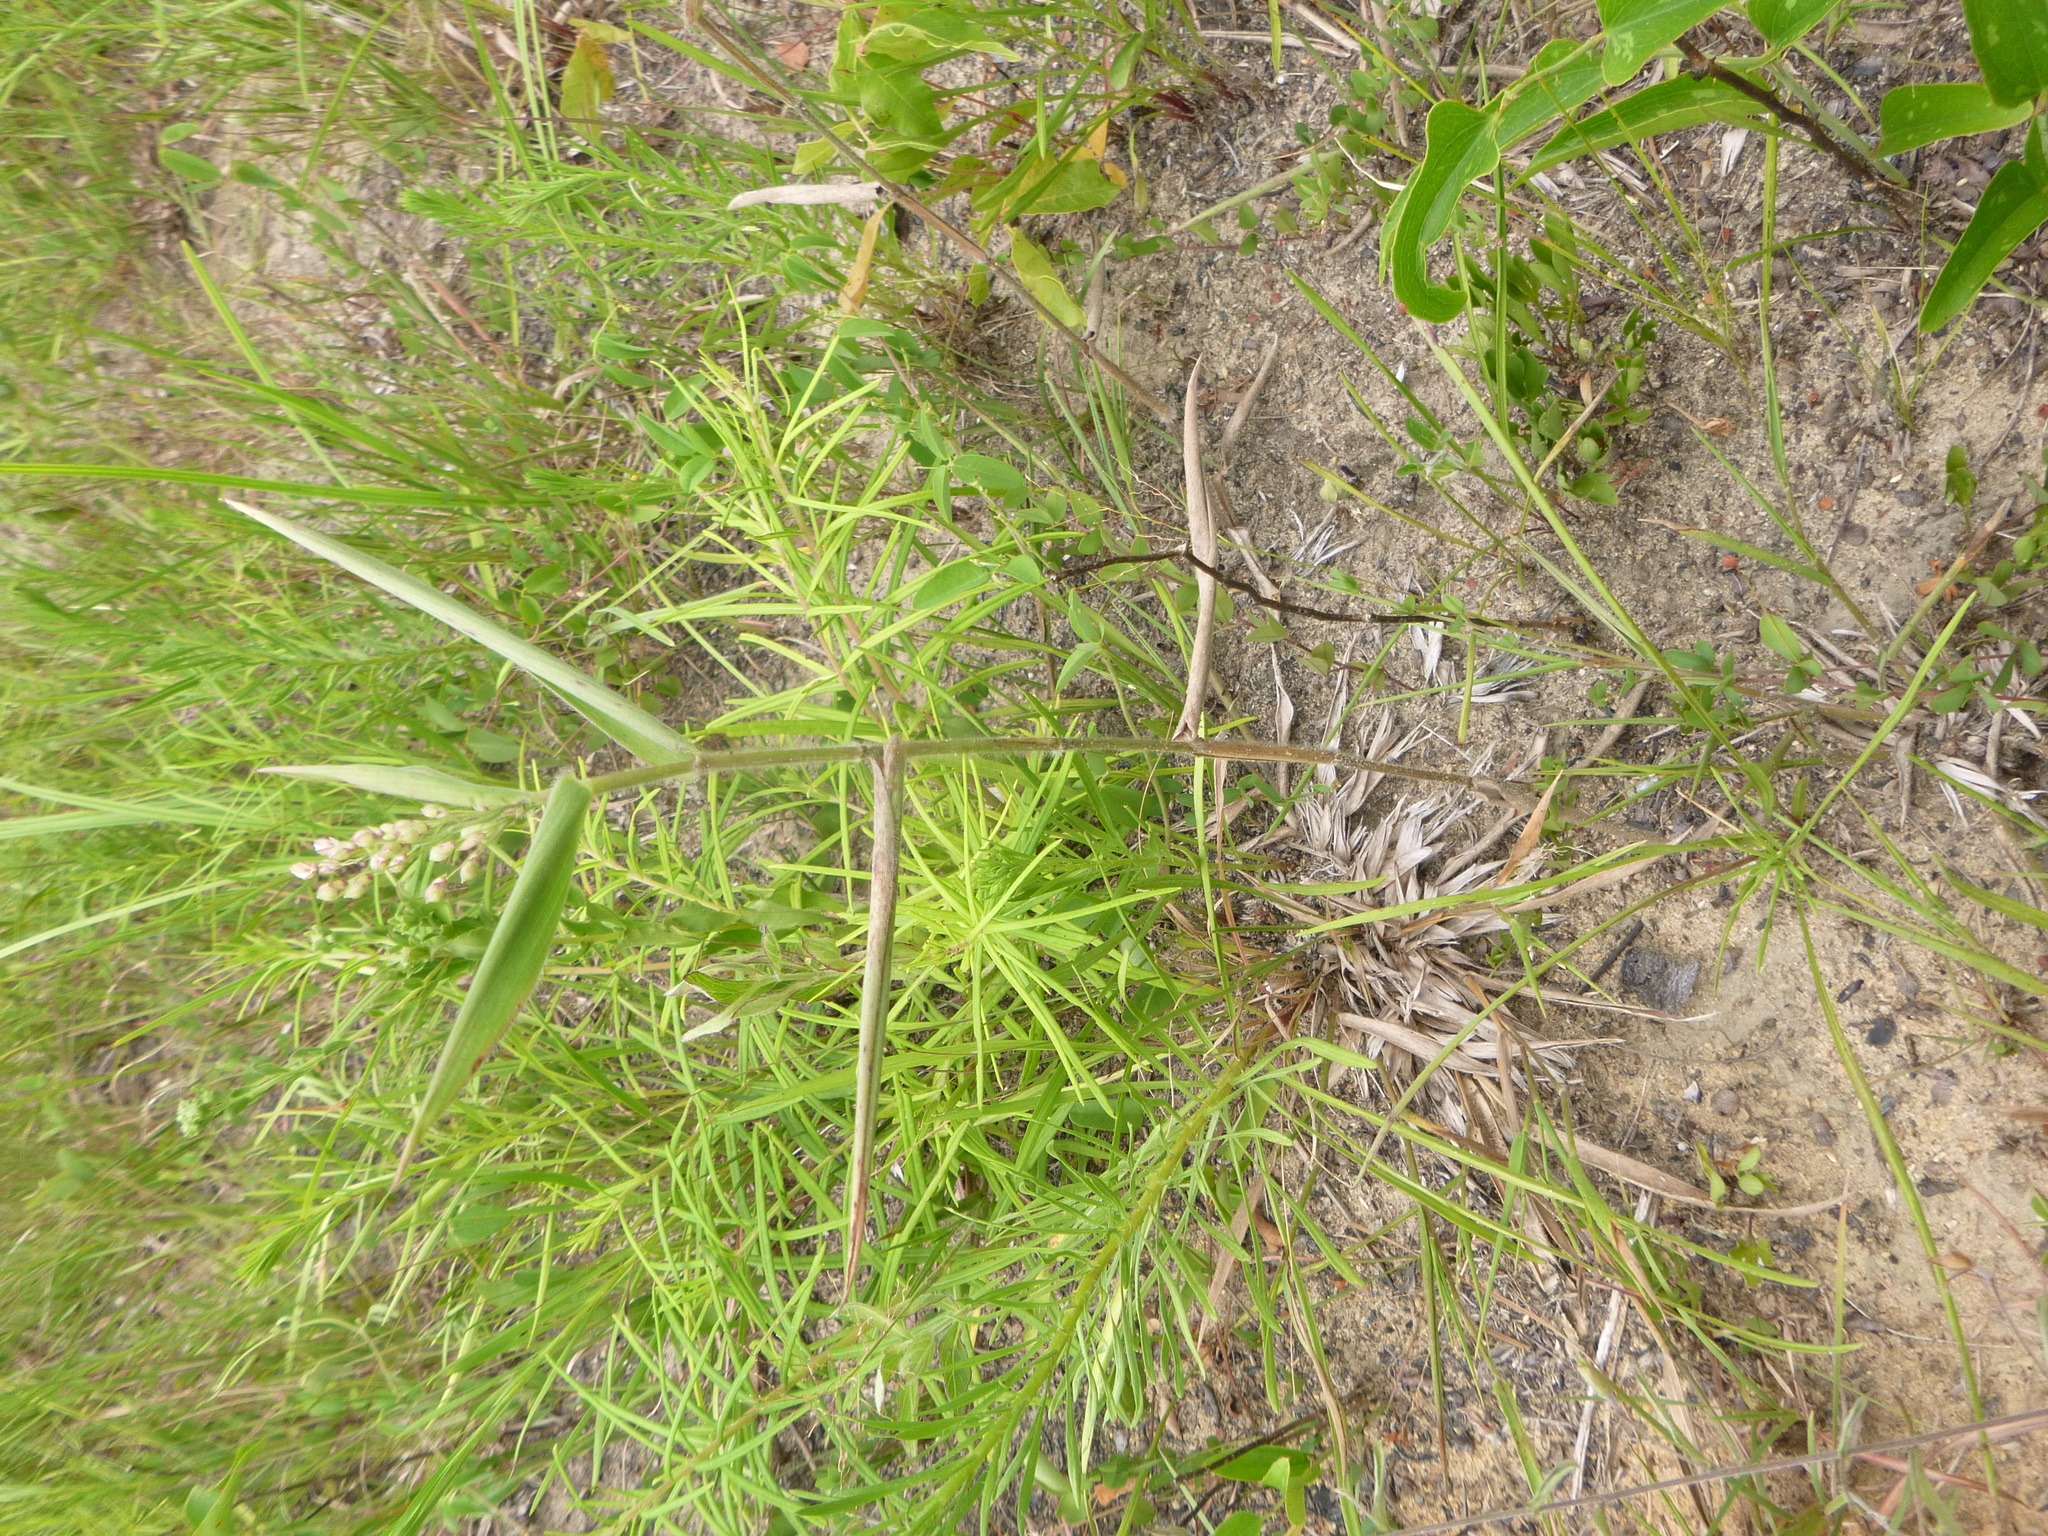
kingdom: Plantae
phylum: Tracheophyta
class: Liliopsida
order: Poales
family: Poaceae
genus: Dichanthelium
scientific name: Dichanthelium ravenelii
